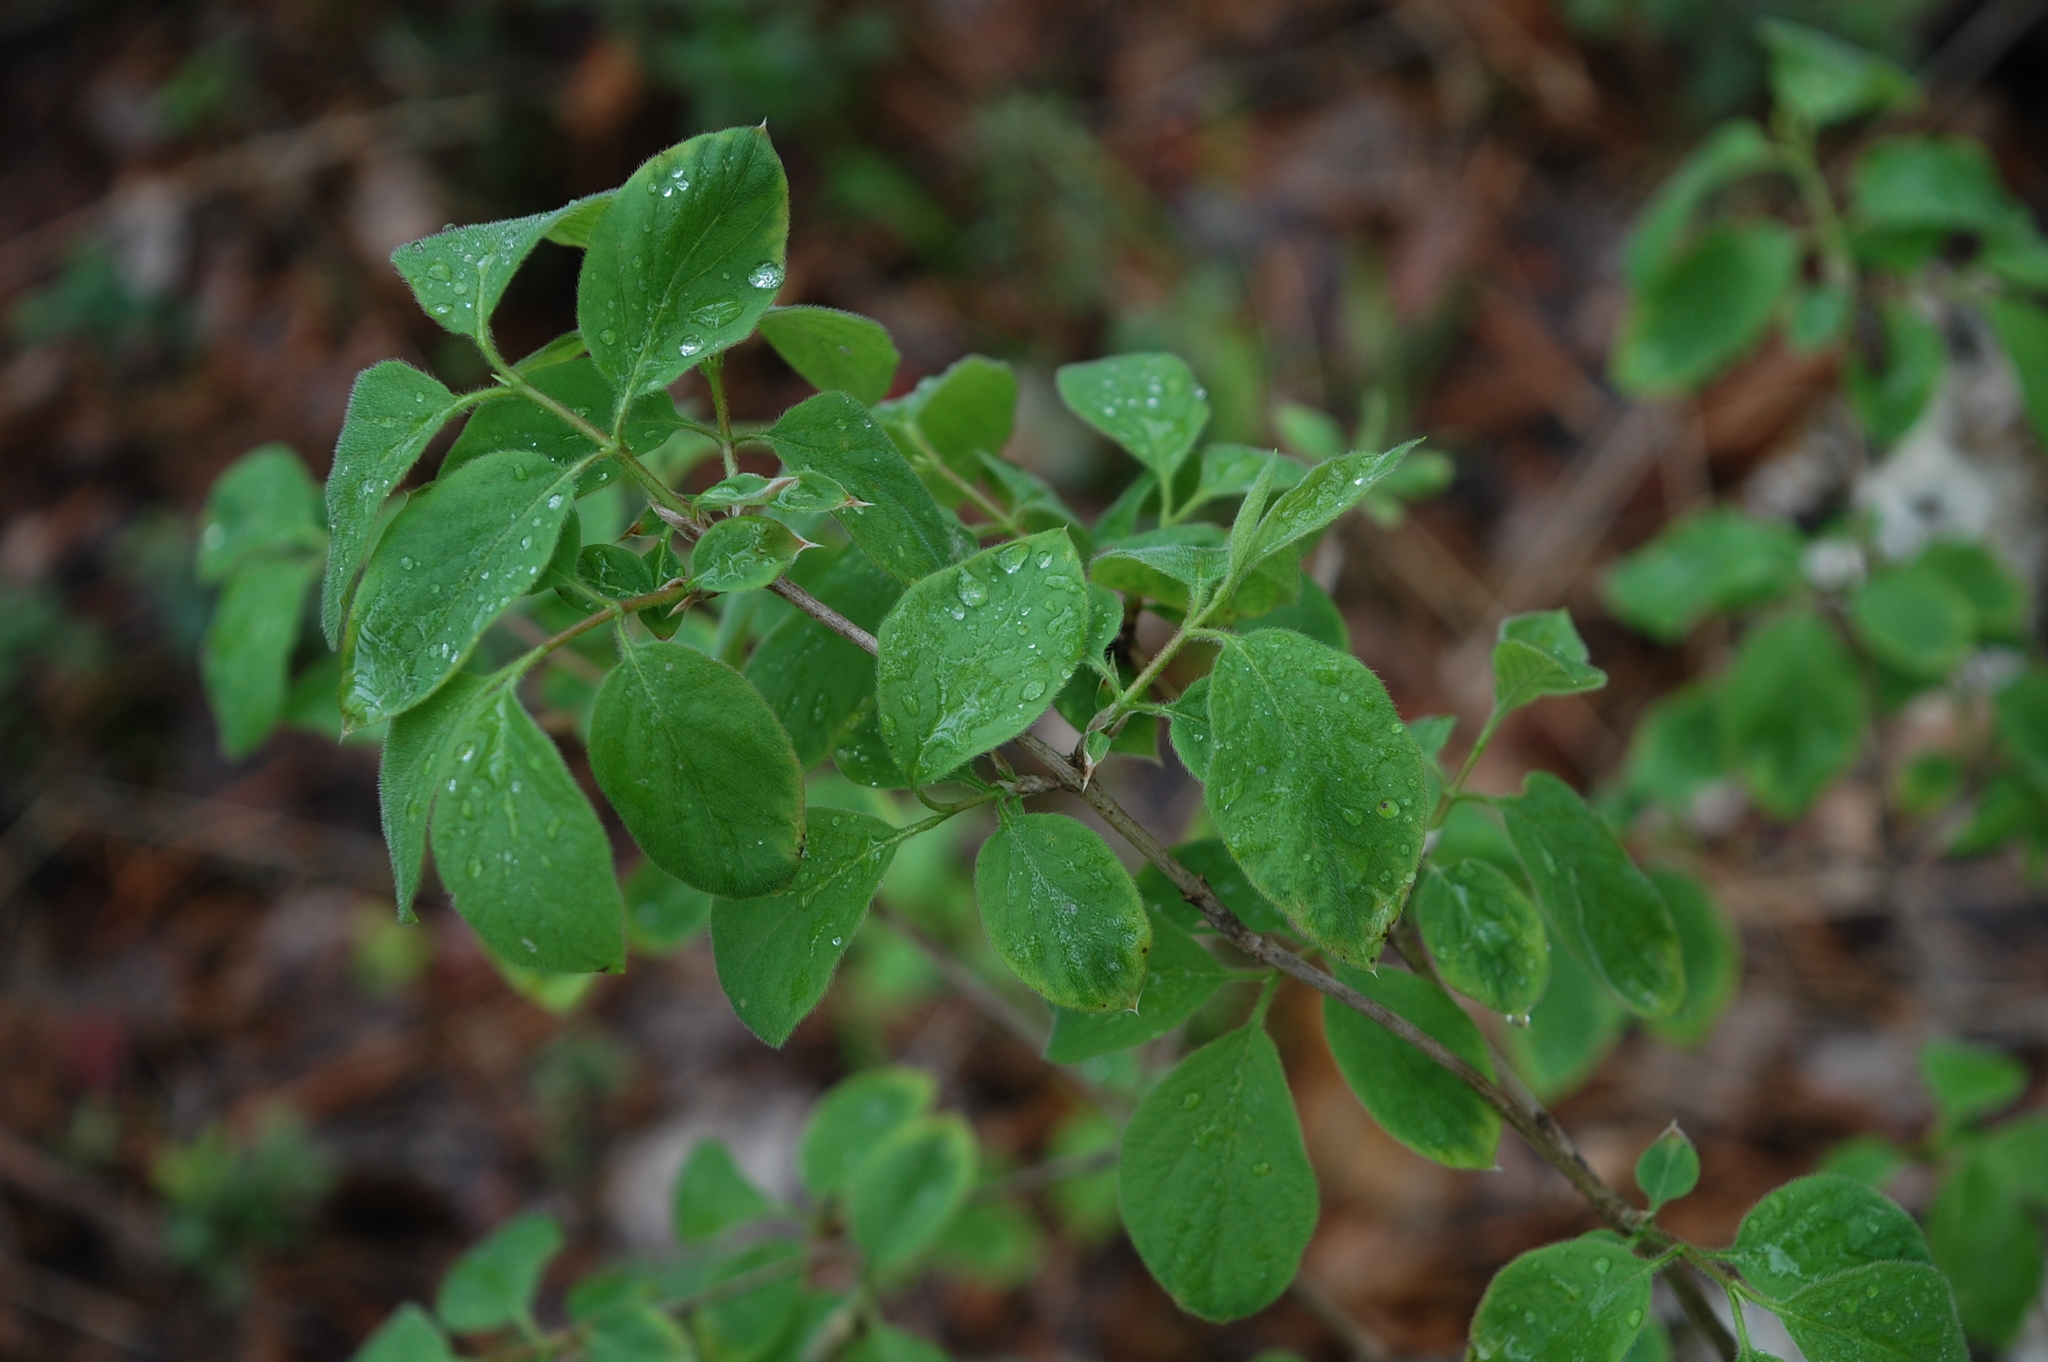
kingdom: Plantae
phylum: Tracheophyta
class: Magnoliopsida
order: Dipsacales
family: Caprifoliaceae
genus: Lonicera
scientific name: Lonicera xylosteum
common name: Fly honeysuckle
